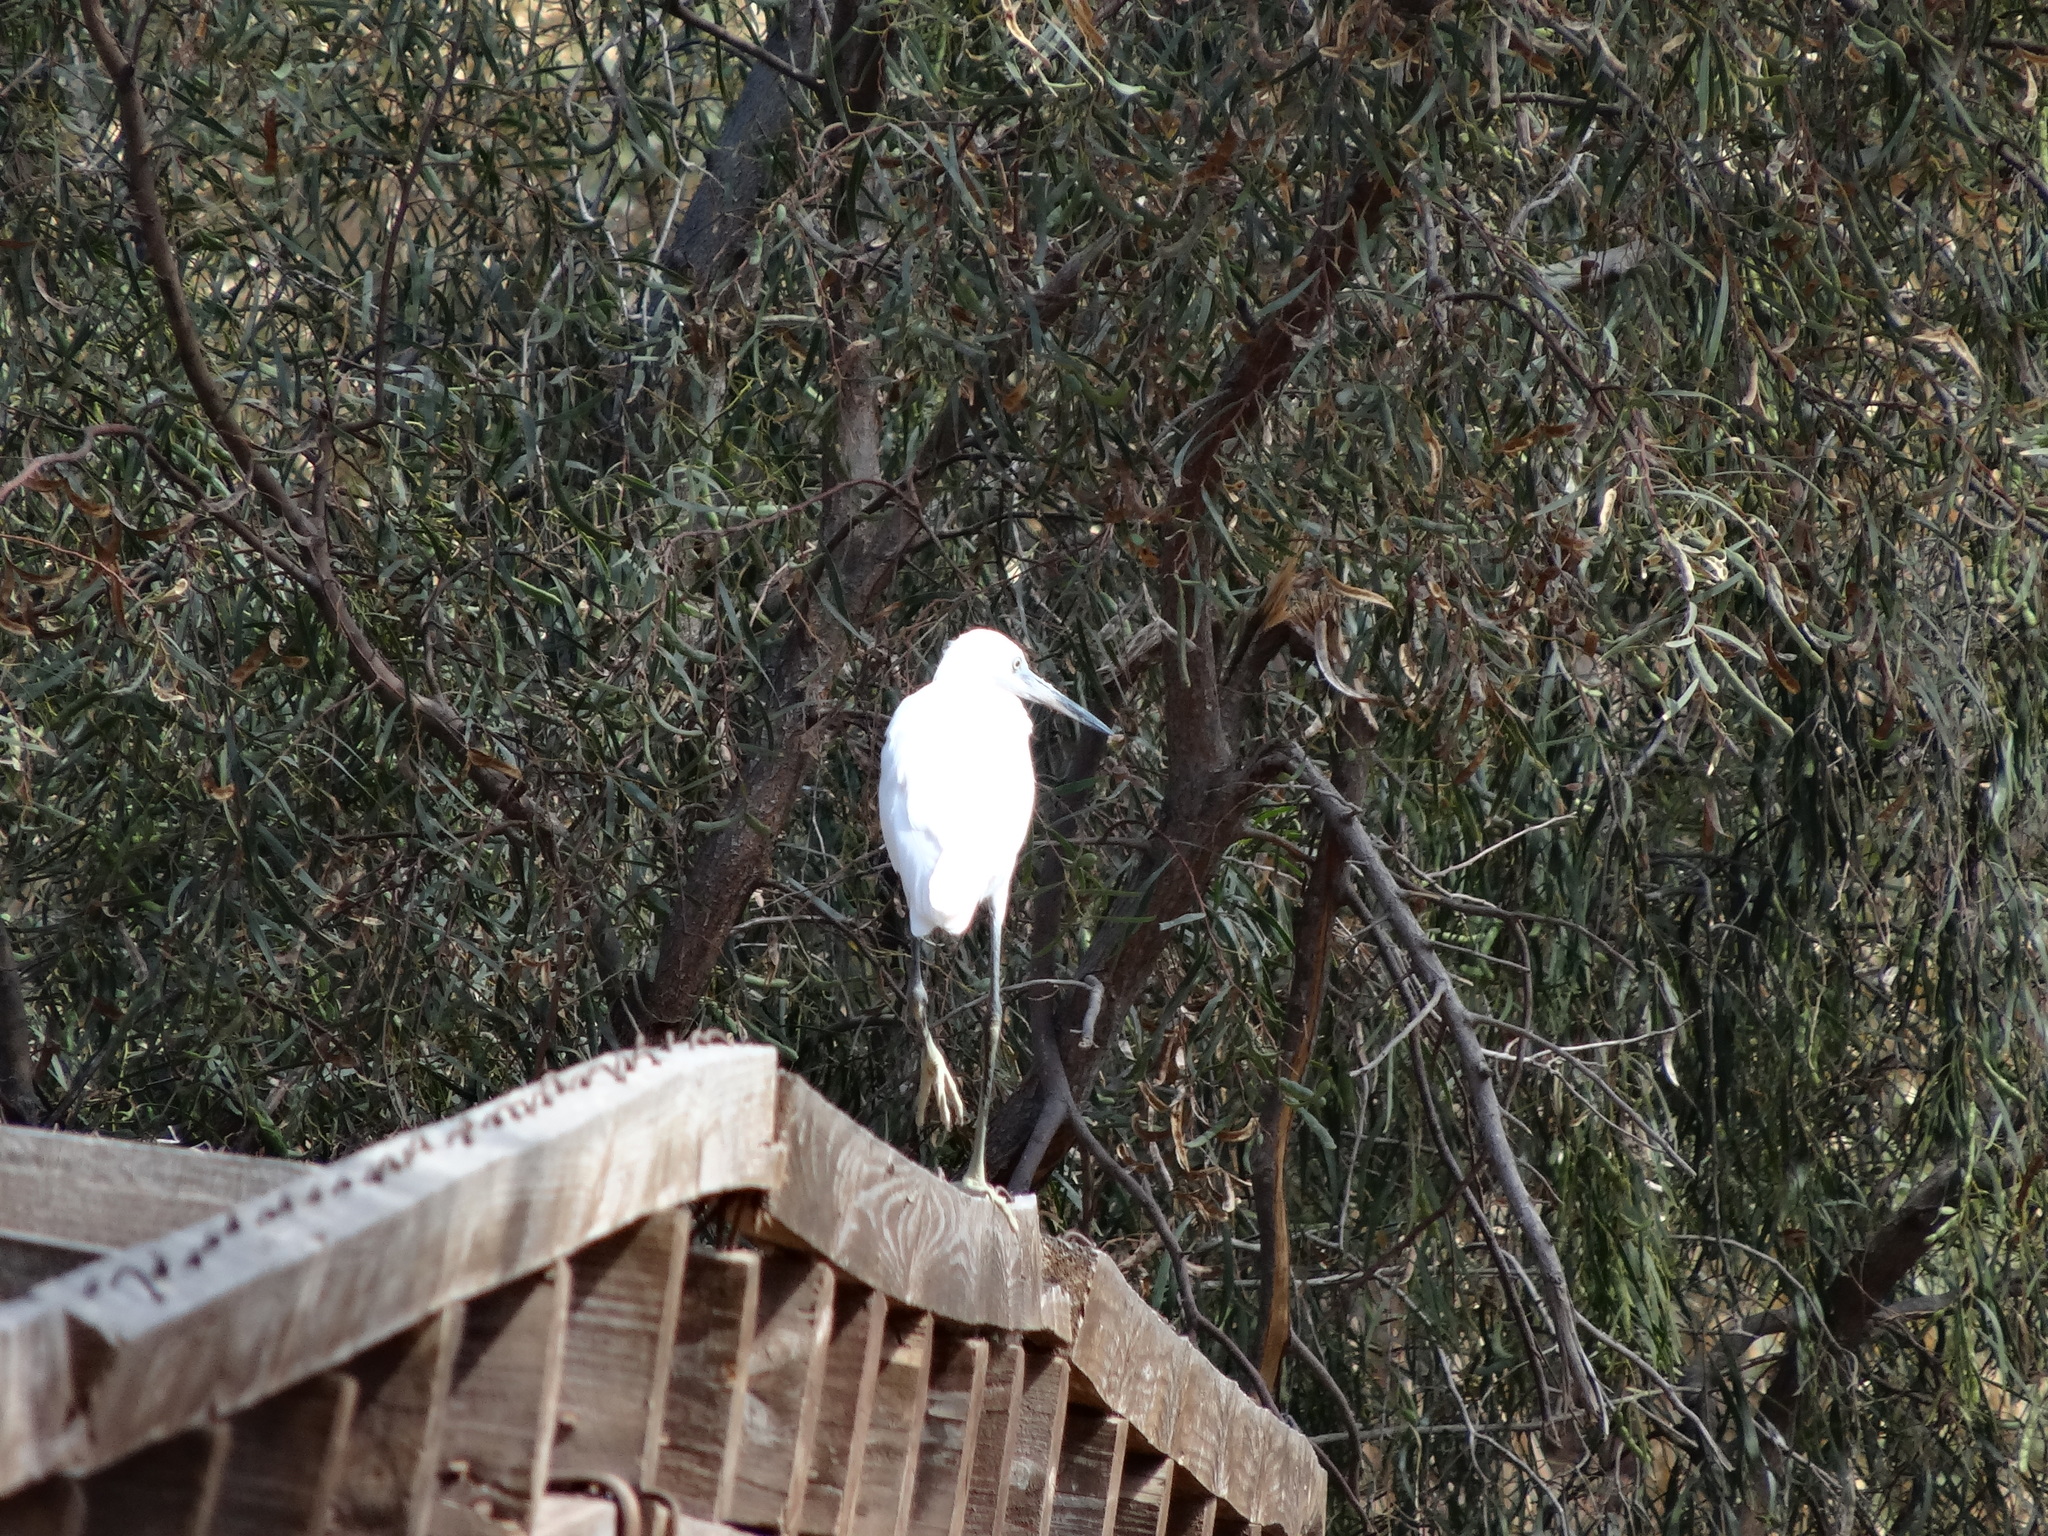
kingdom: Animalia
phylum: Chordata
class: Aves
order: Pelecaniformes
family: Ardeidae
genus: Egretta
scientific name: Egretta garzetta
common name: Little egret
